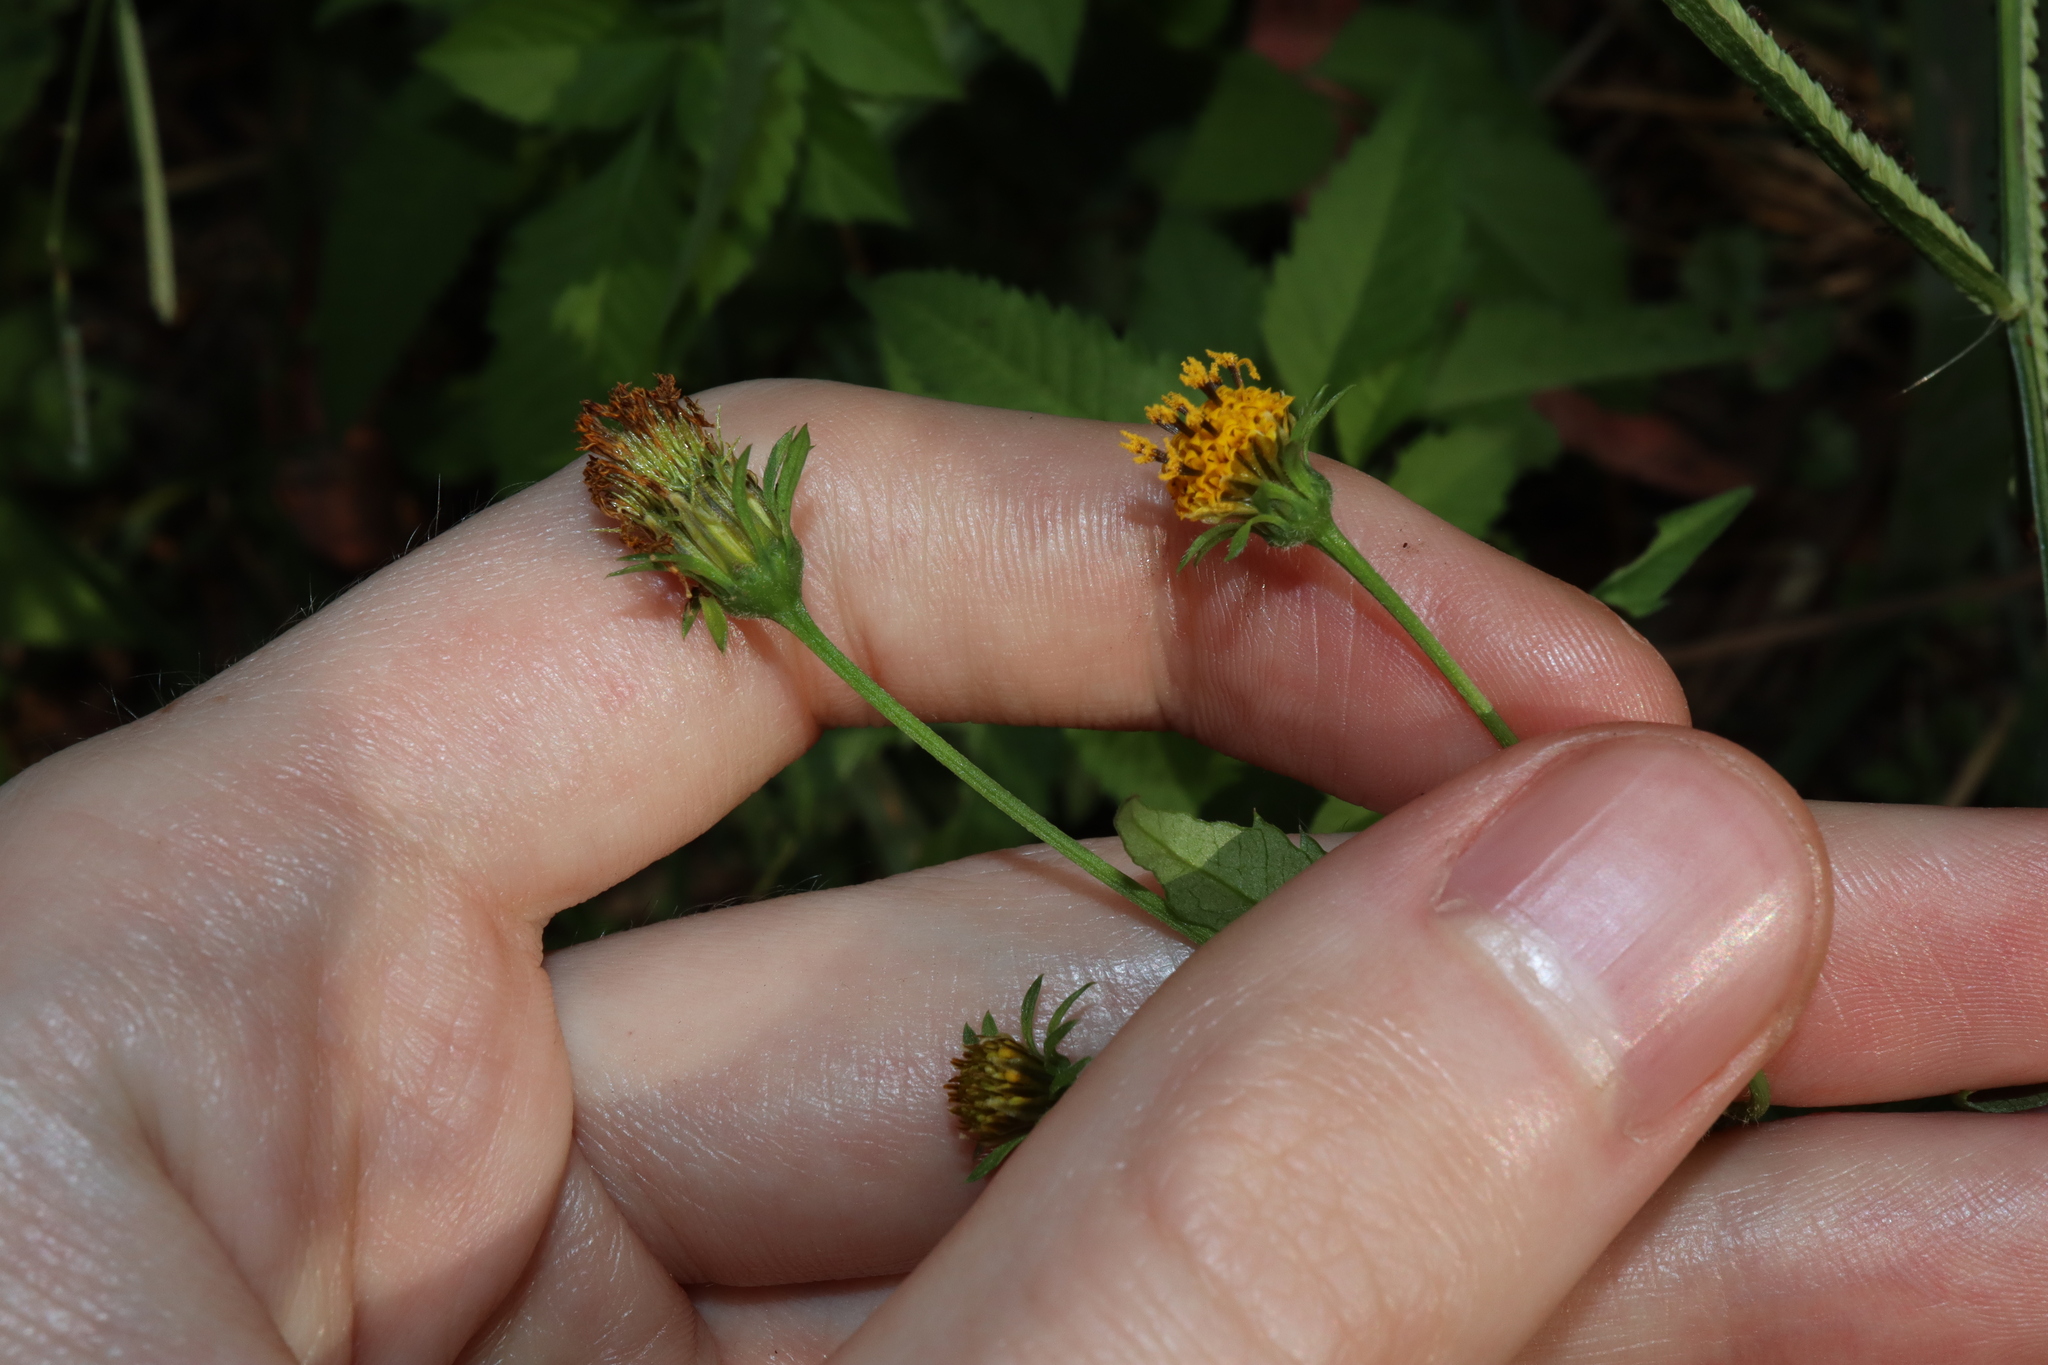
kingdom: Plantae
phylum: Tracheophyta
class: Magnoliopsida
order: Asterales
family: Asteraceae
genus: Bidens
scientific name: Bidens pilosa
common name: Black-jack
